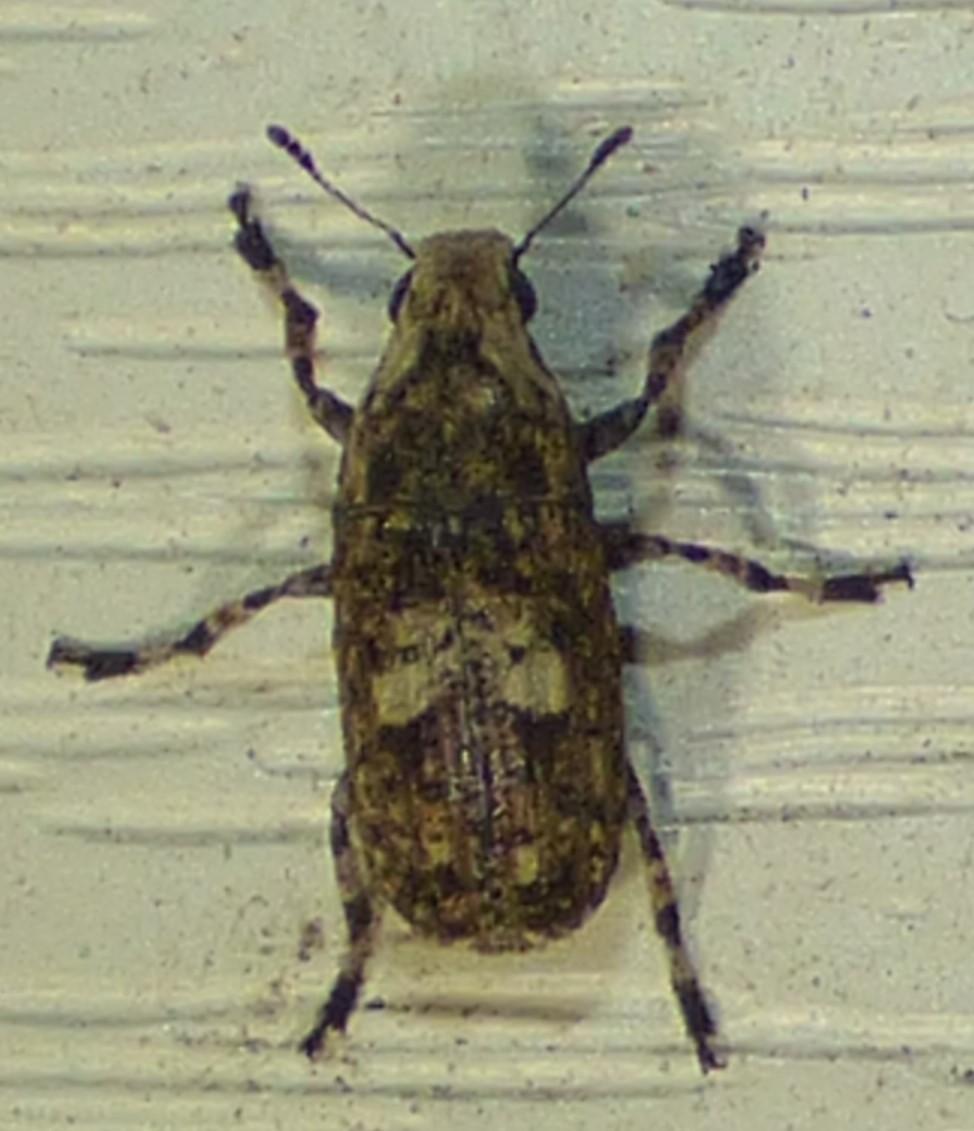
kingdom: Animalia
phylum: Arthropoda
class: Insecta
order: Coleoptera
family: Anthribidae
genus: Euparius
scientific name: Euparius marmoreus
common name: Marbled fungus weevil
